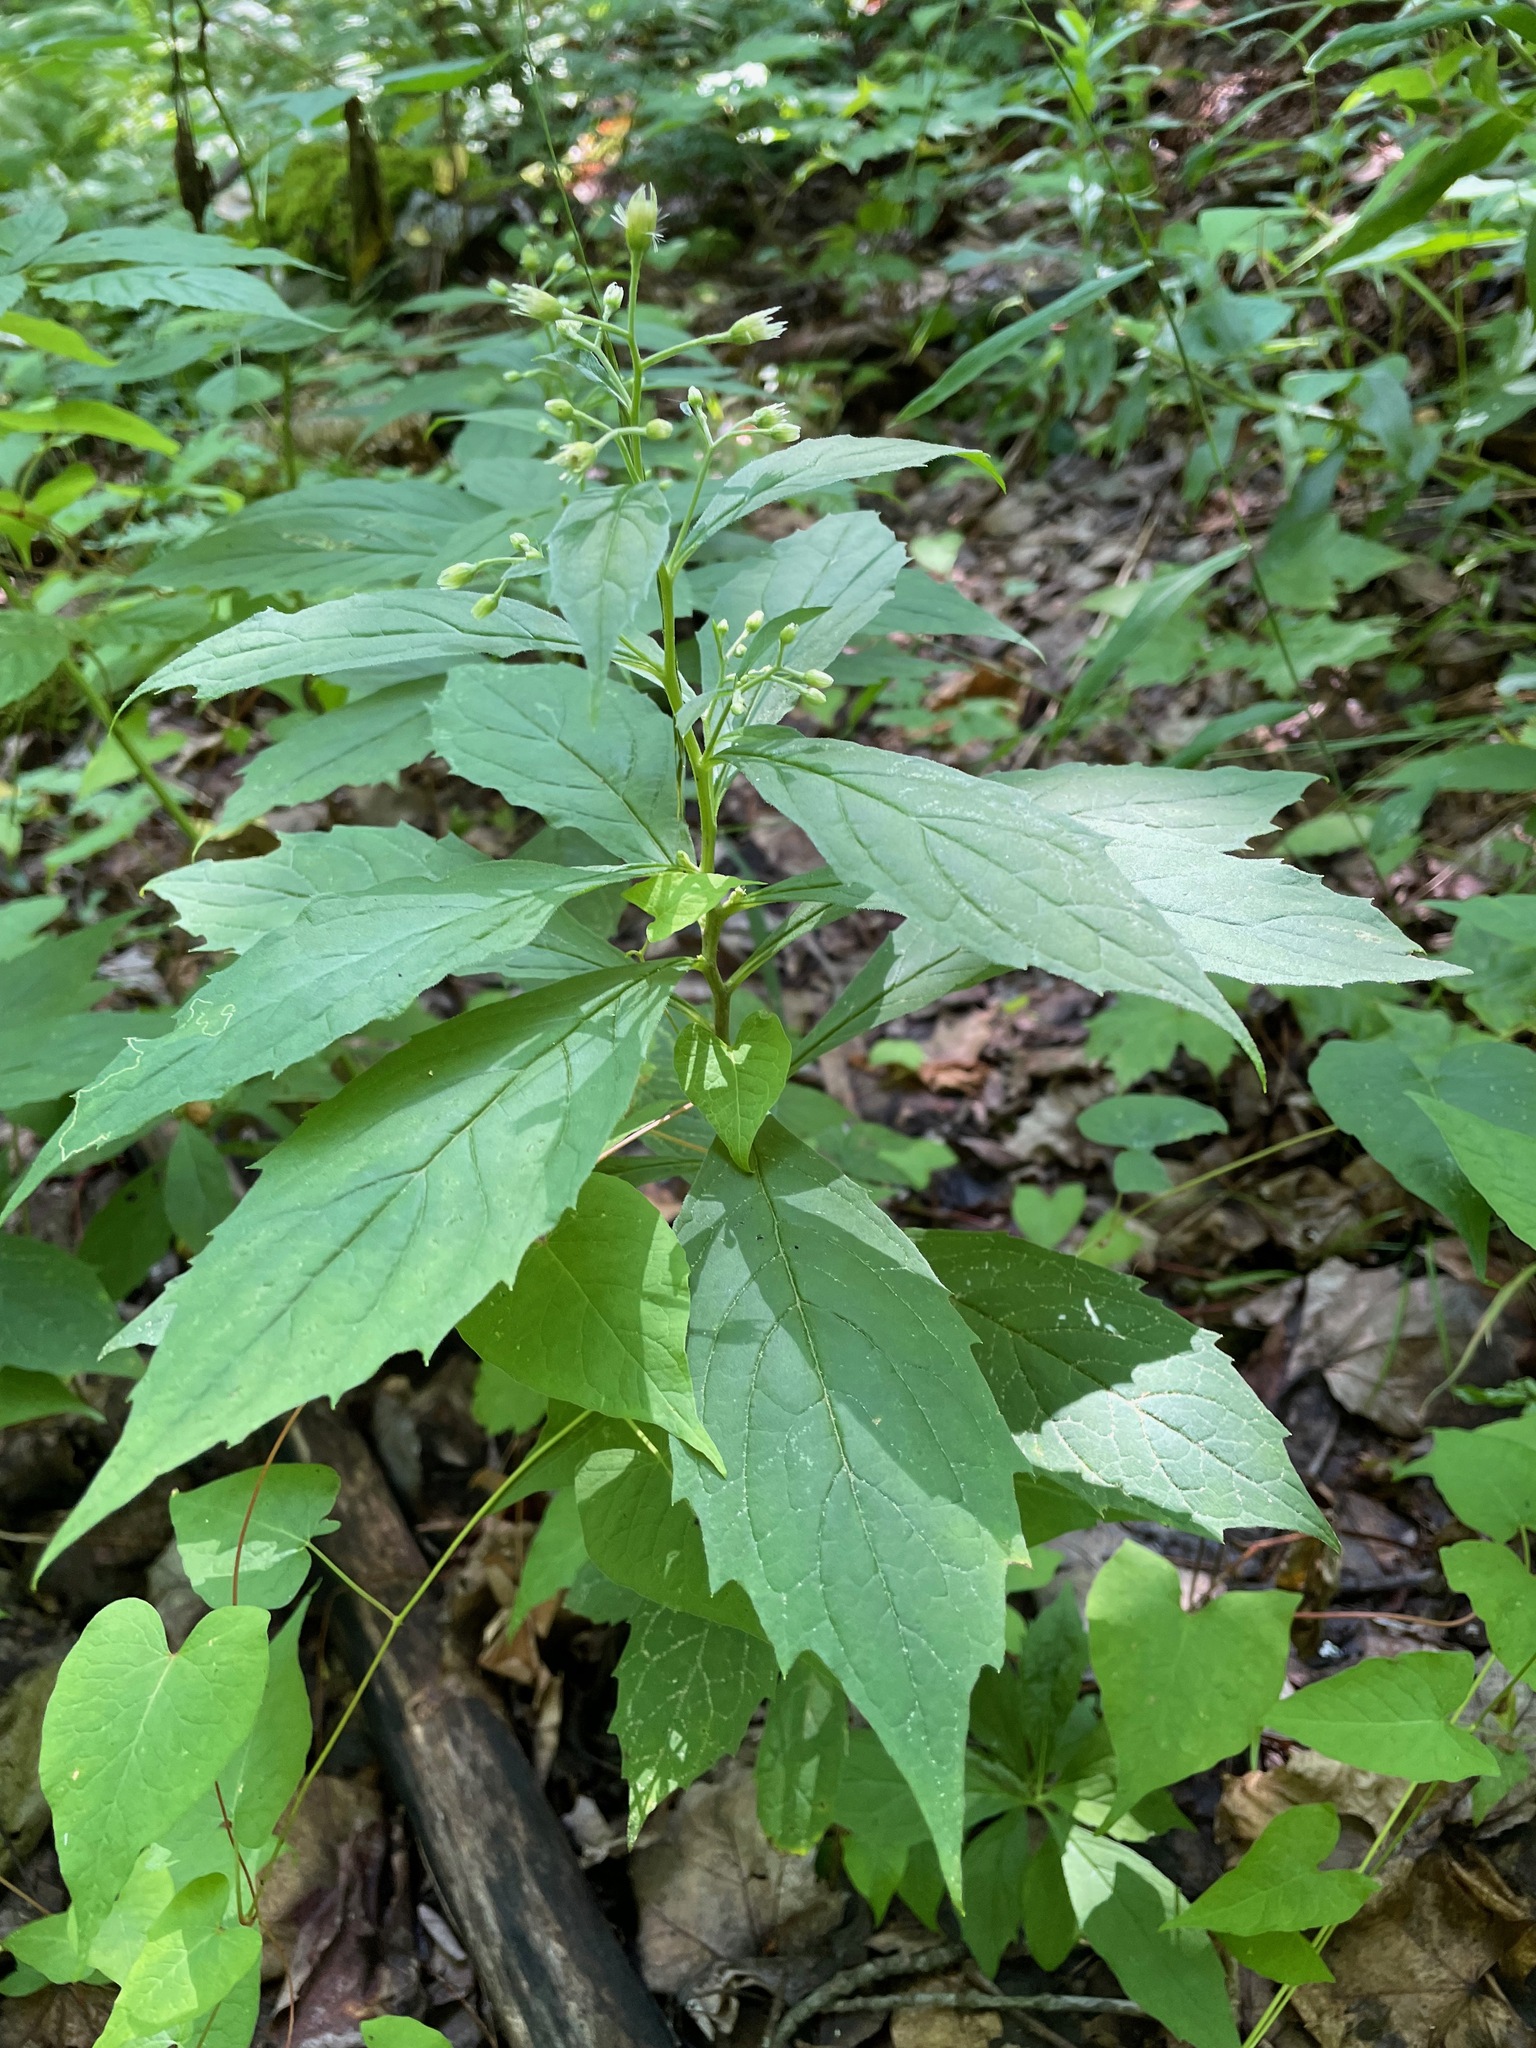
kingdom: Plantae
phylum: Tracheophyta
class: Magnoliopsida
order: Asterales
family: Asteraceae
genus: Oclemena
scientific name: Oclemena acuminata
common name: Mountain aster
